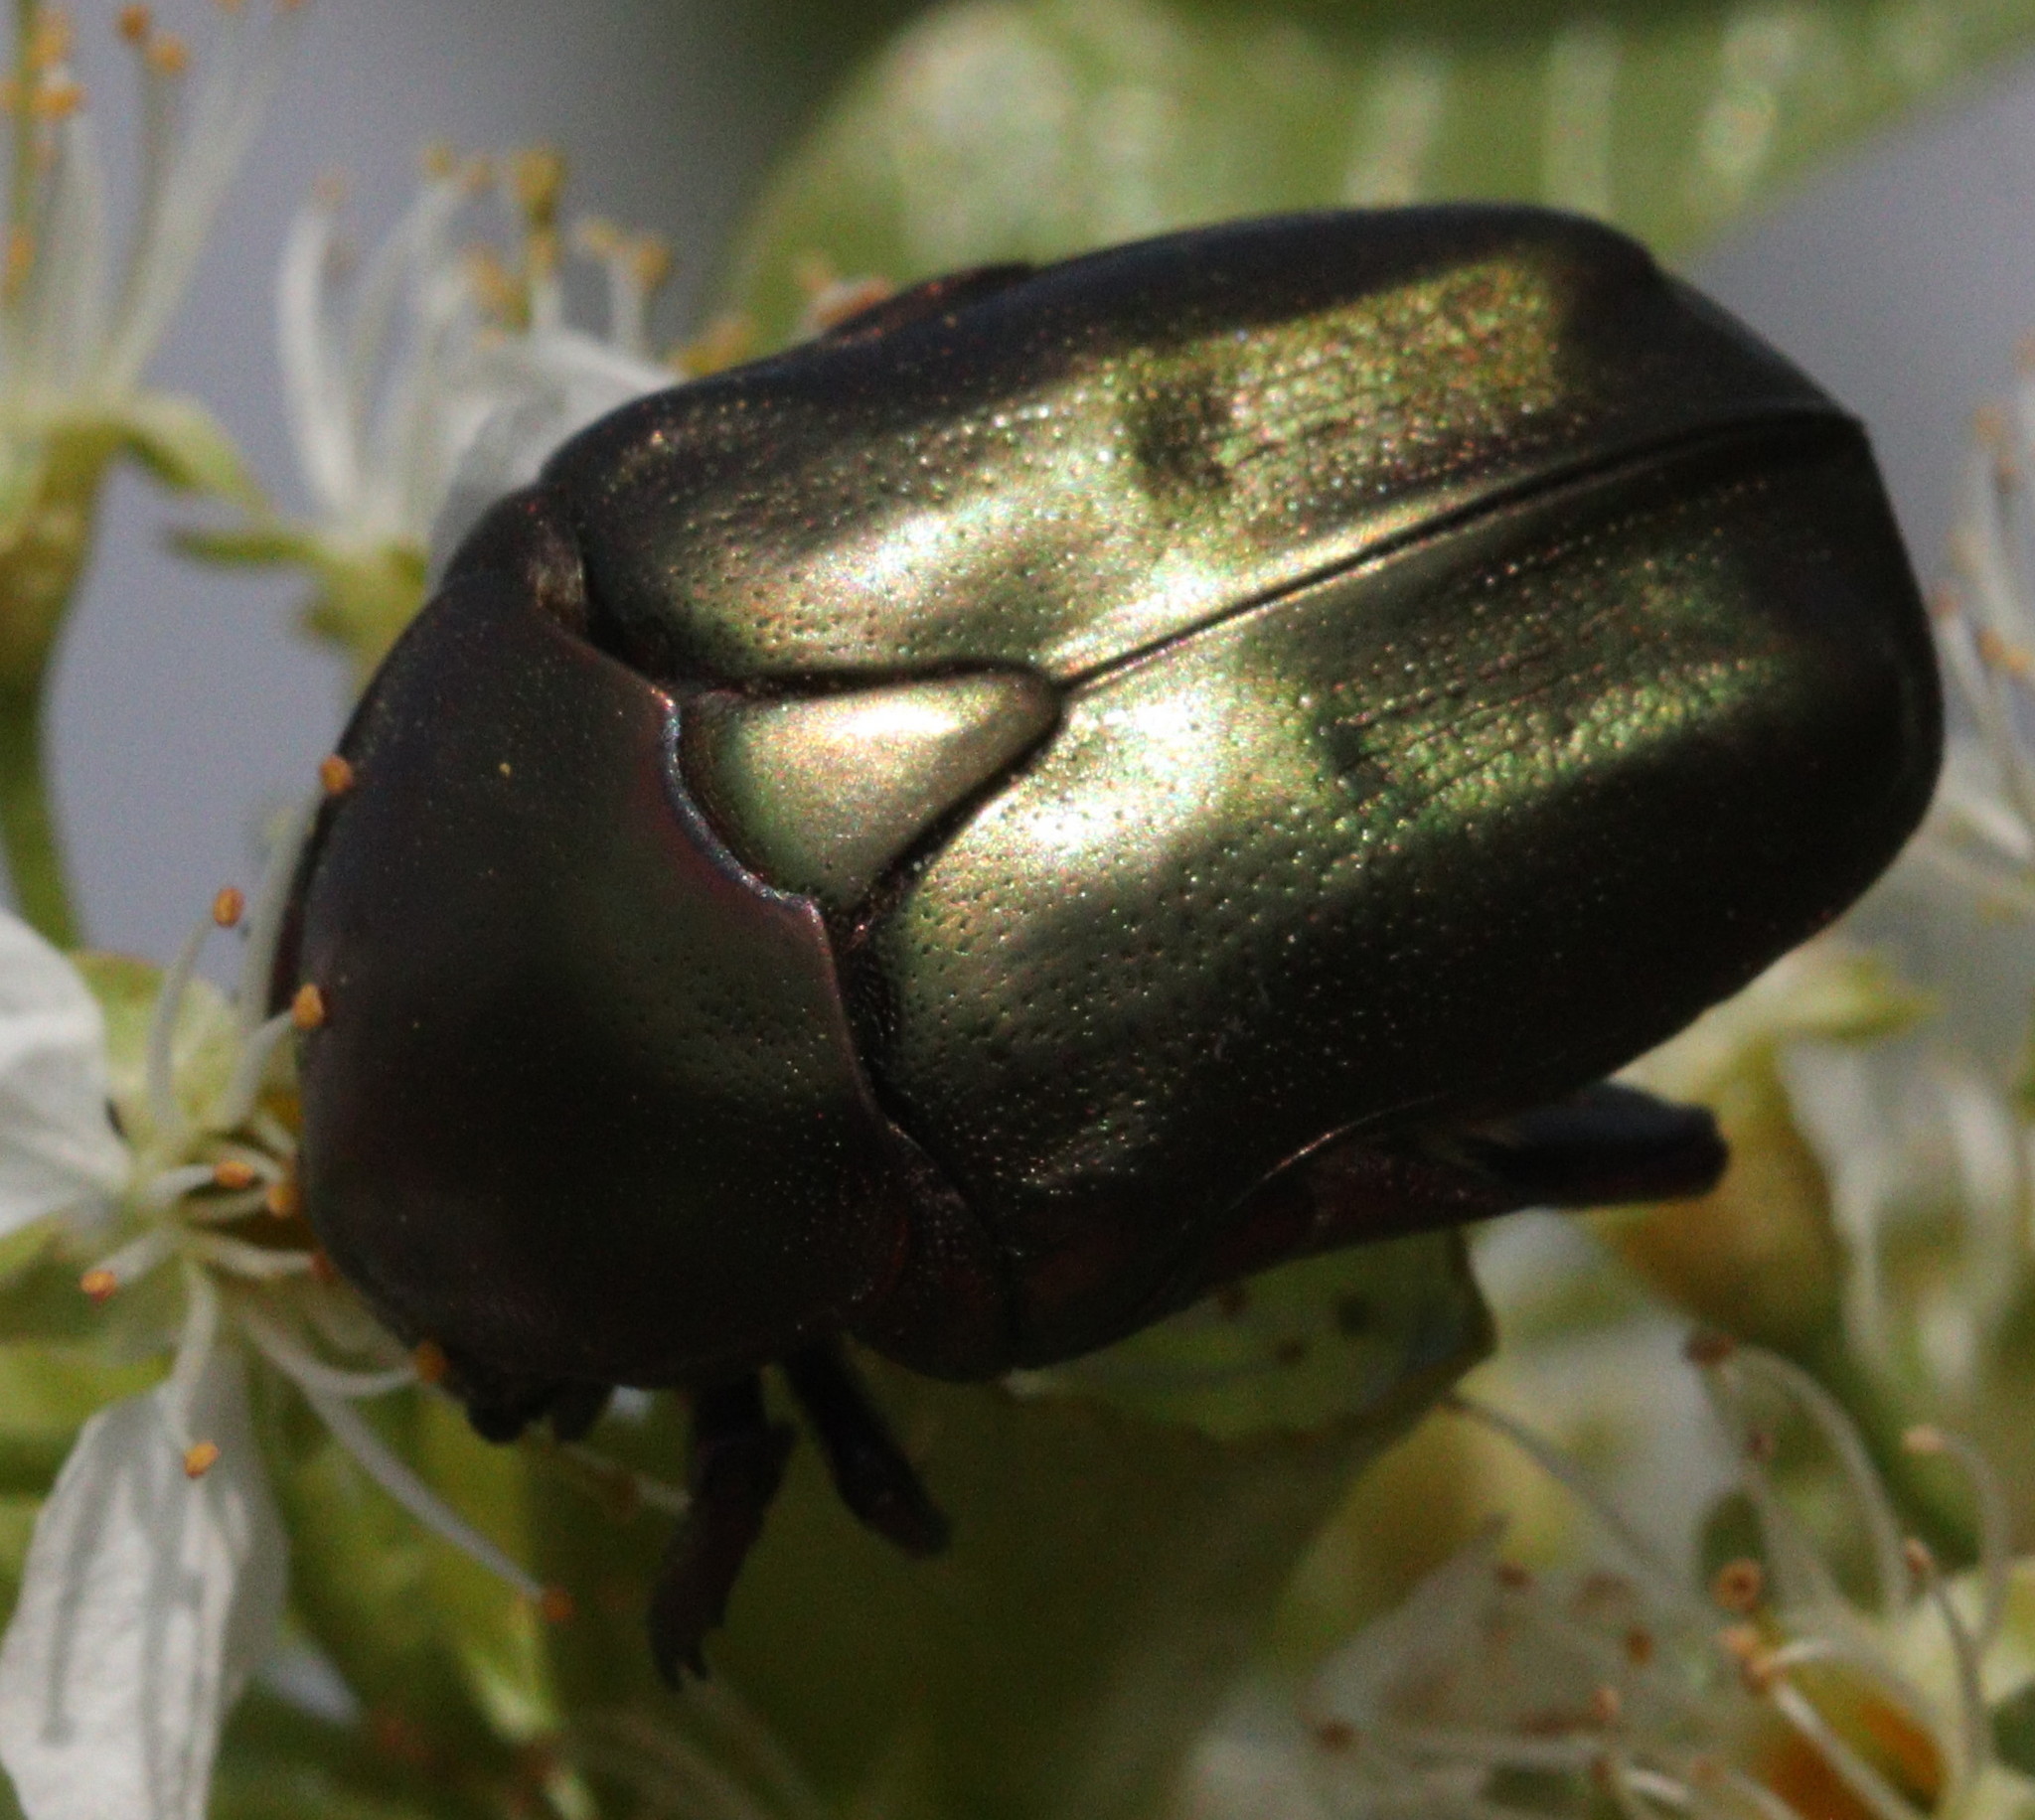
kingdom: Animalia
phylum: Arthropoda
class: Insecta
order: Coleoptera
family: Scarabaeidae
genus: Protaetia
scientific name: Protaetia cuprea
